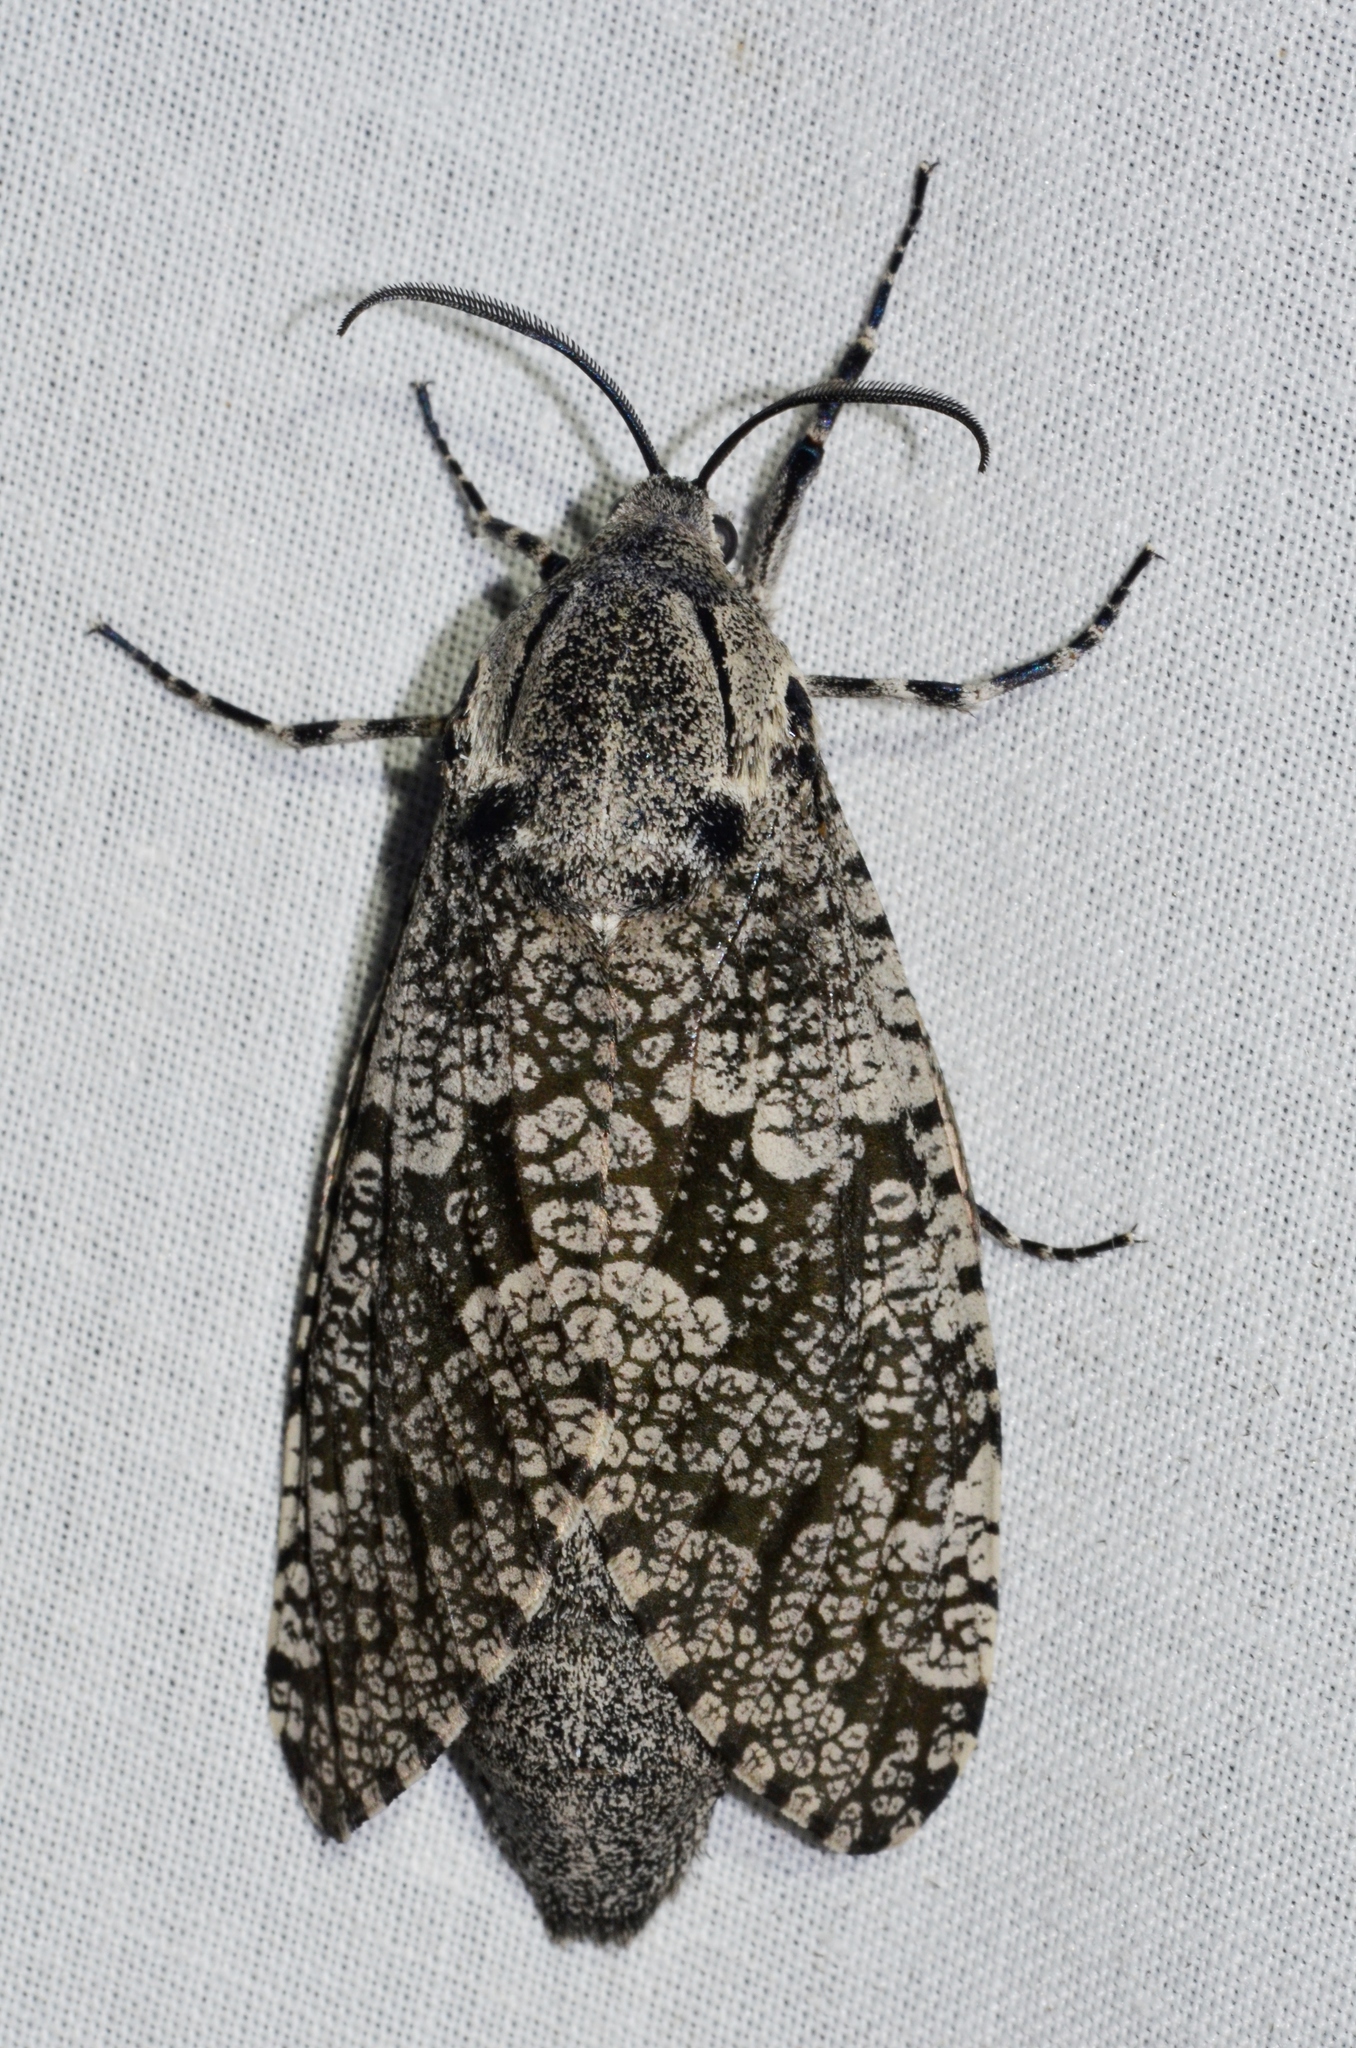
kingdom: Animalia
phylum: Arthropoda
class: Insecta
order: Lepidoptera
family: Cossidae
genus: Prionoxystus
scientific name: Prionoxystus robiniae
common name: Carpenterworm
